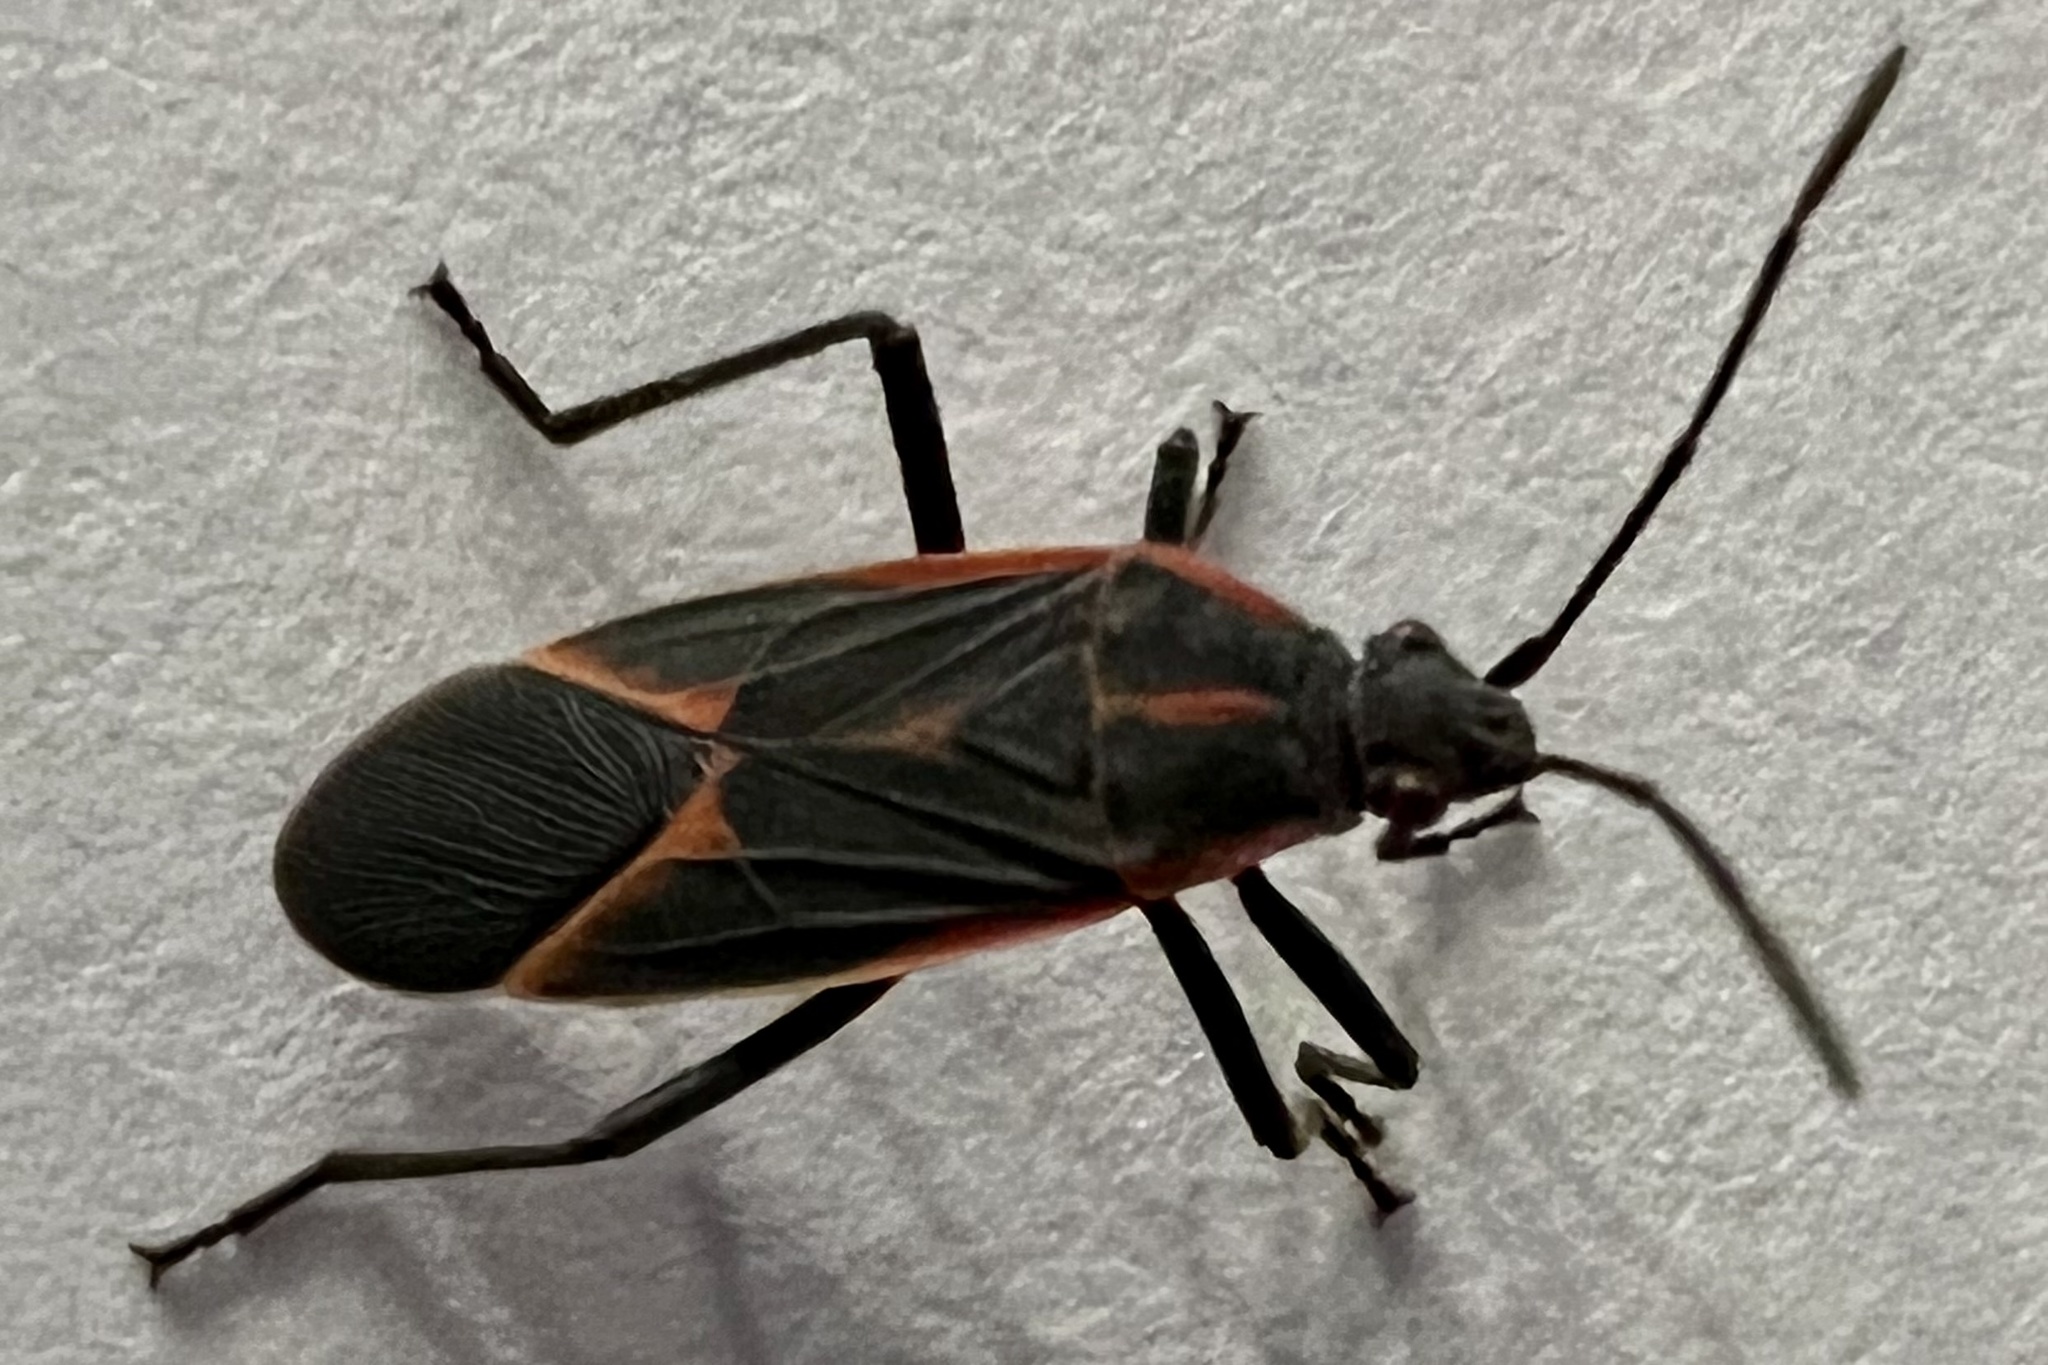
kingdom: Animalia
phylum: Arthropoda
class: Insecta
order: Hemiptera
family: Rhopalidae
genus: Boisea
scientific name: Boisea trivittata
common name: Boxelder bug
